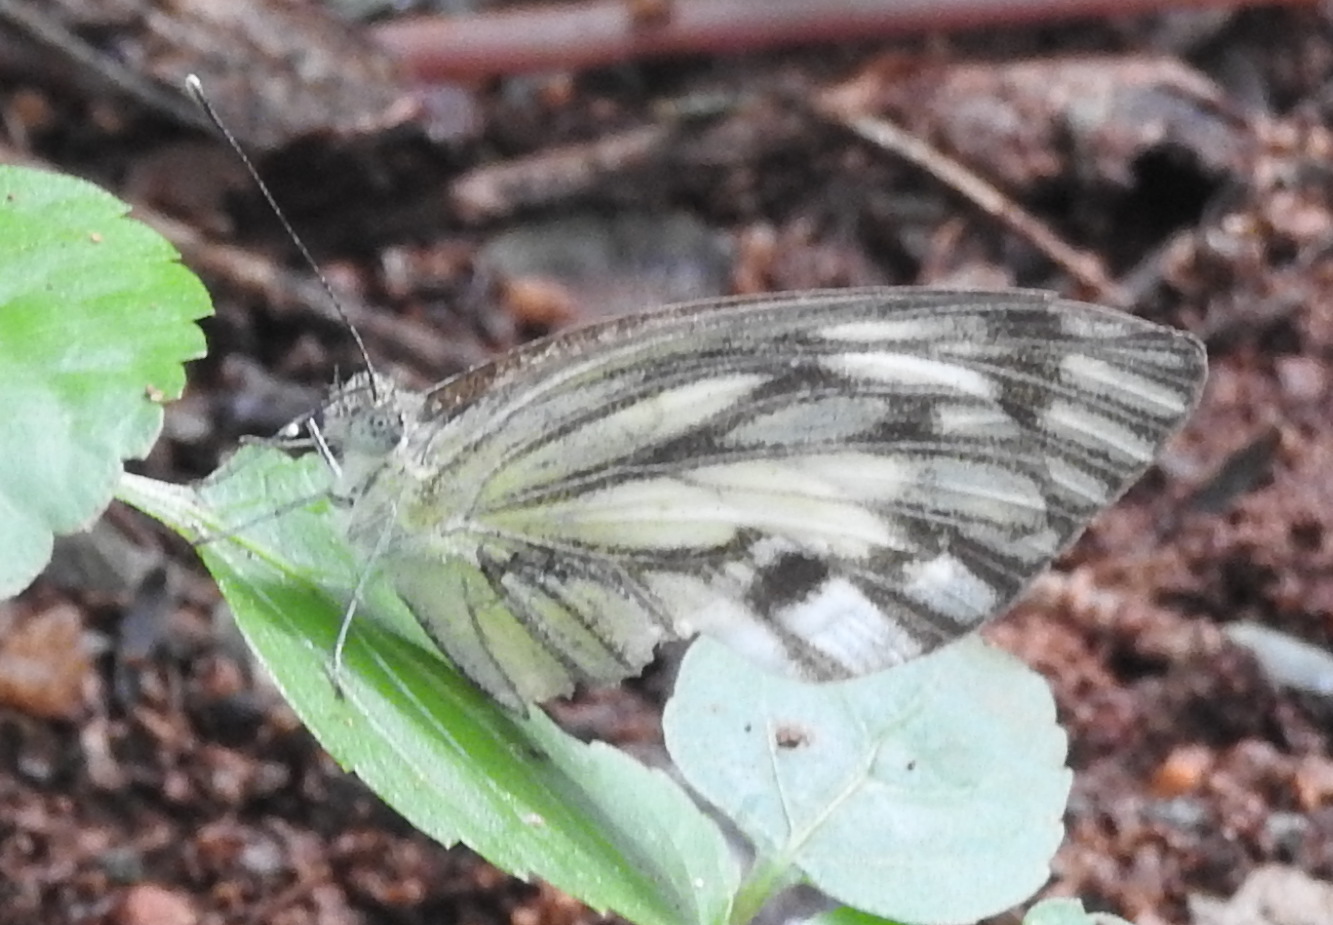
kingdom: Animalia
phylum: Arthropoda
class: Insecta
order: Lepidoptera
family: Pieridae
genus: Cepora
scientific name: Cepora nerissa
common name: Common gull
